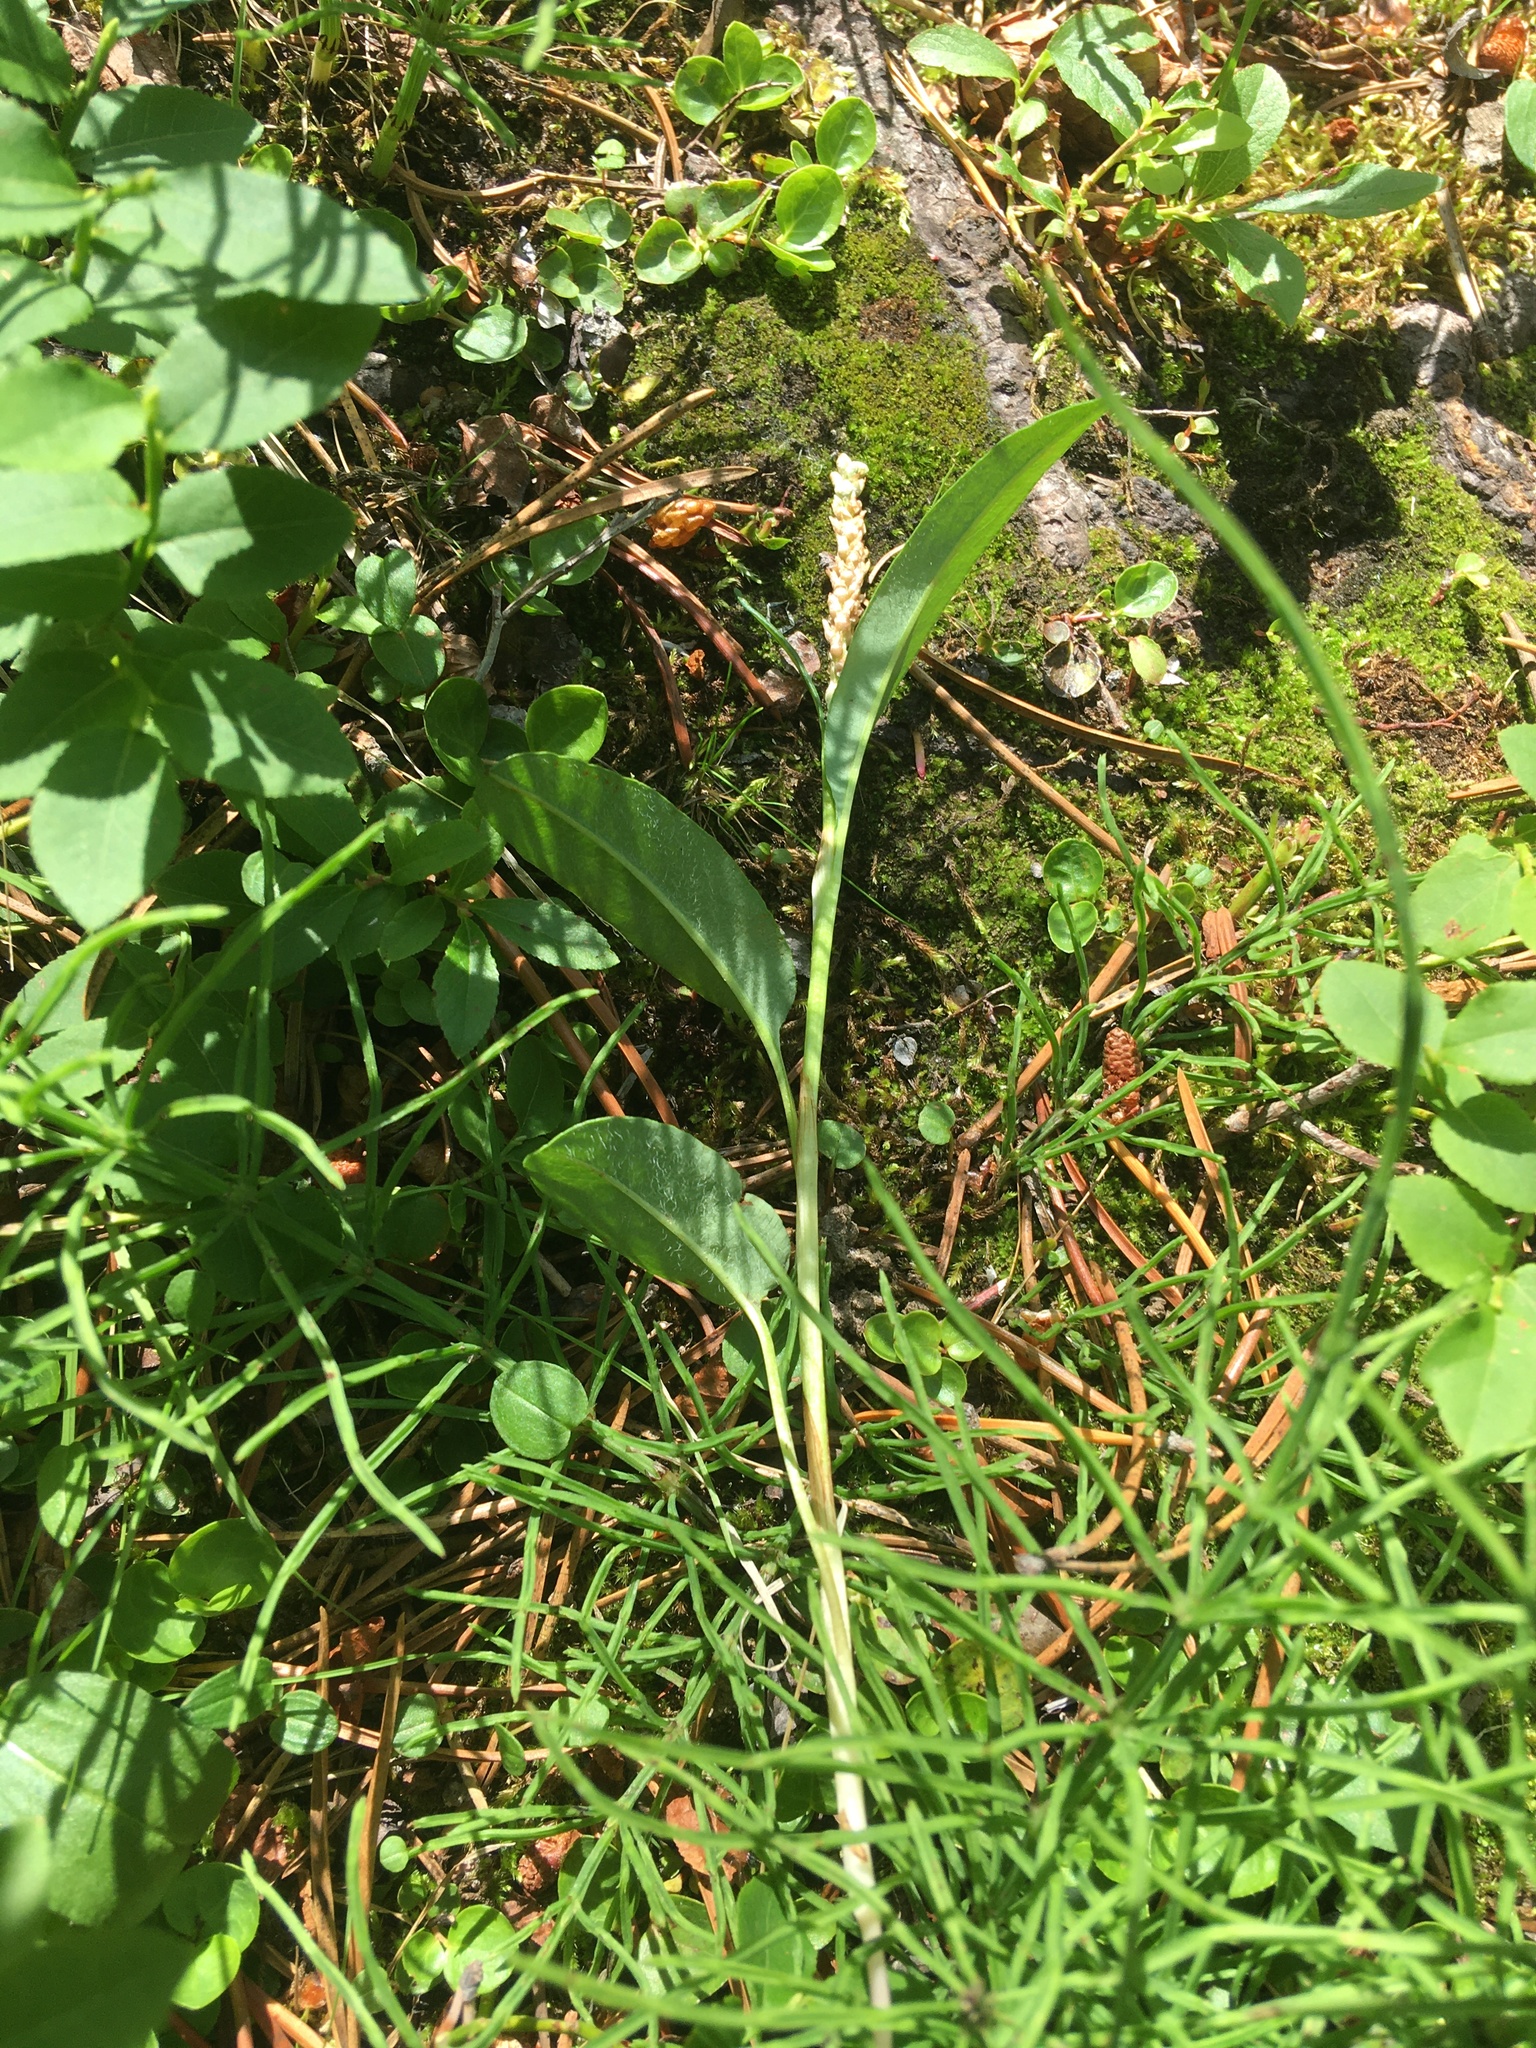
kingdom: Plantae
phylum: Tracheophyta
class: Magnoliopsida
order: Caryophyllales
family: Polygonaceae
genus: Bistorta
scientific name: Bistorta vivipara
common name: Alpine bistort
